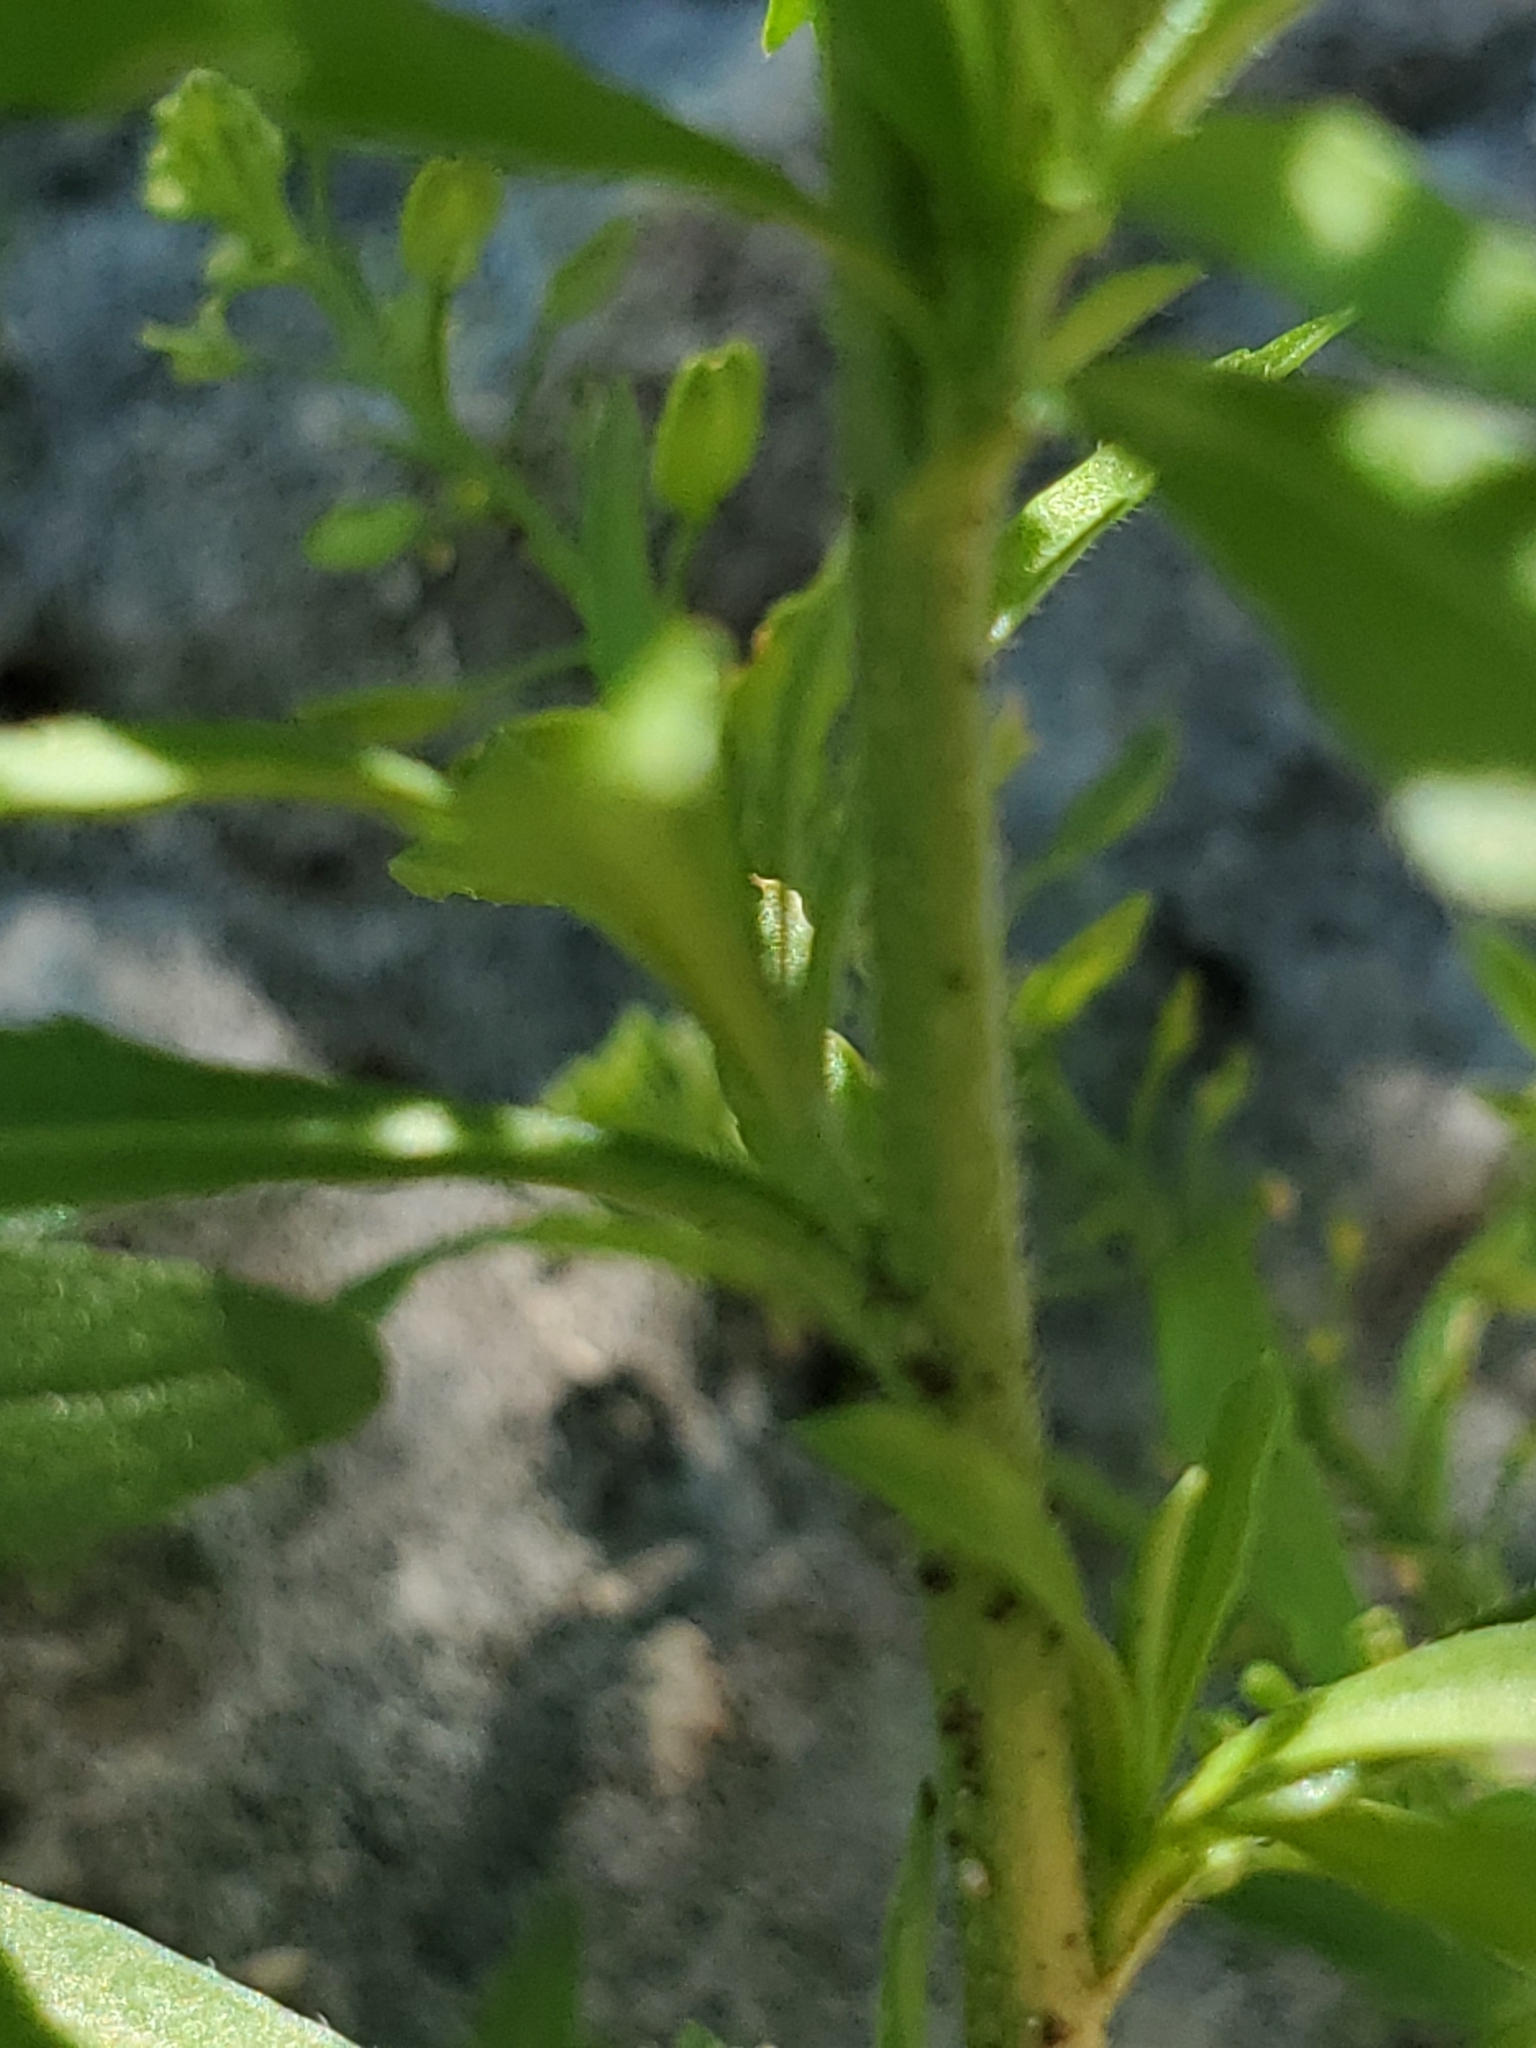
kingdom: Plantae
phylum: Tracheophyta
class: Magnoliopsida
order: Brassicales
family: Brassicaceae
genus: Lepidium
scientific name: Lepidium densiflorum
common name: Miner's pepperwort
